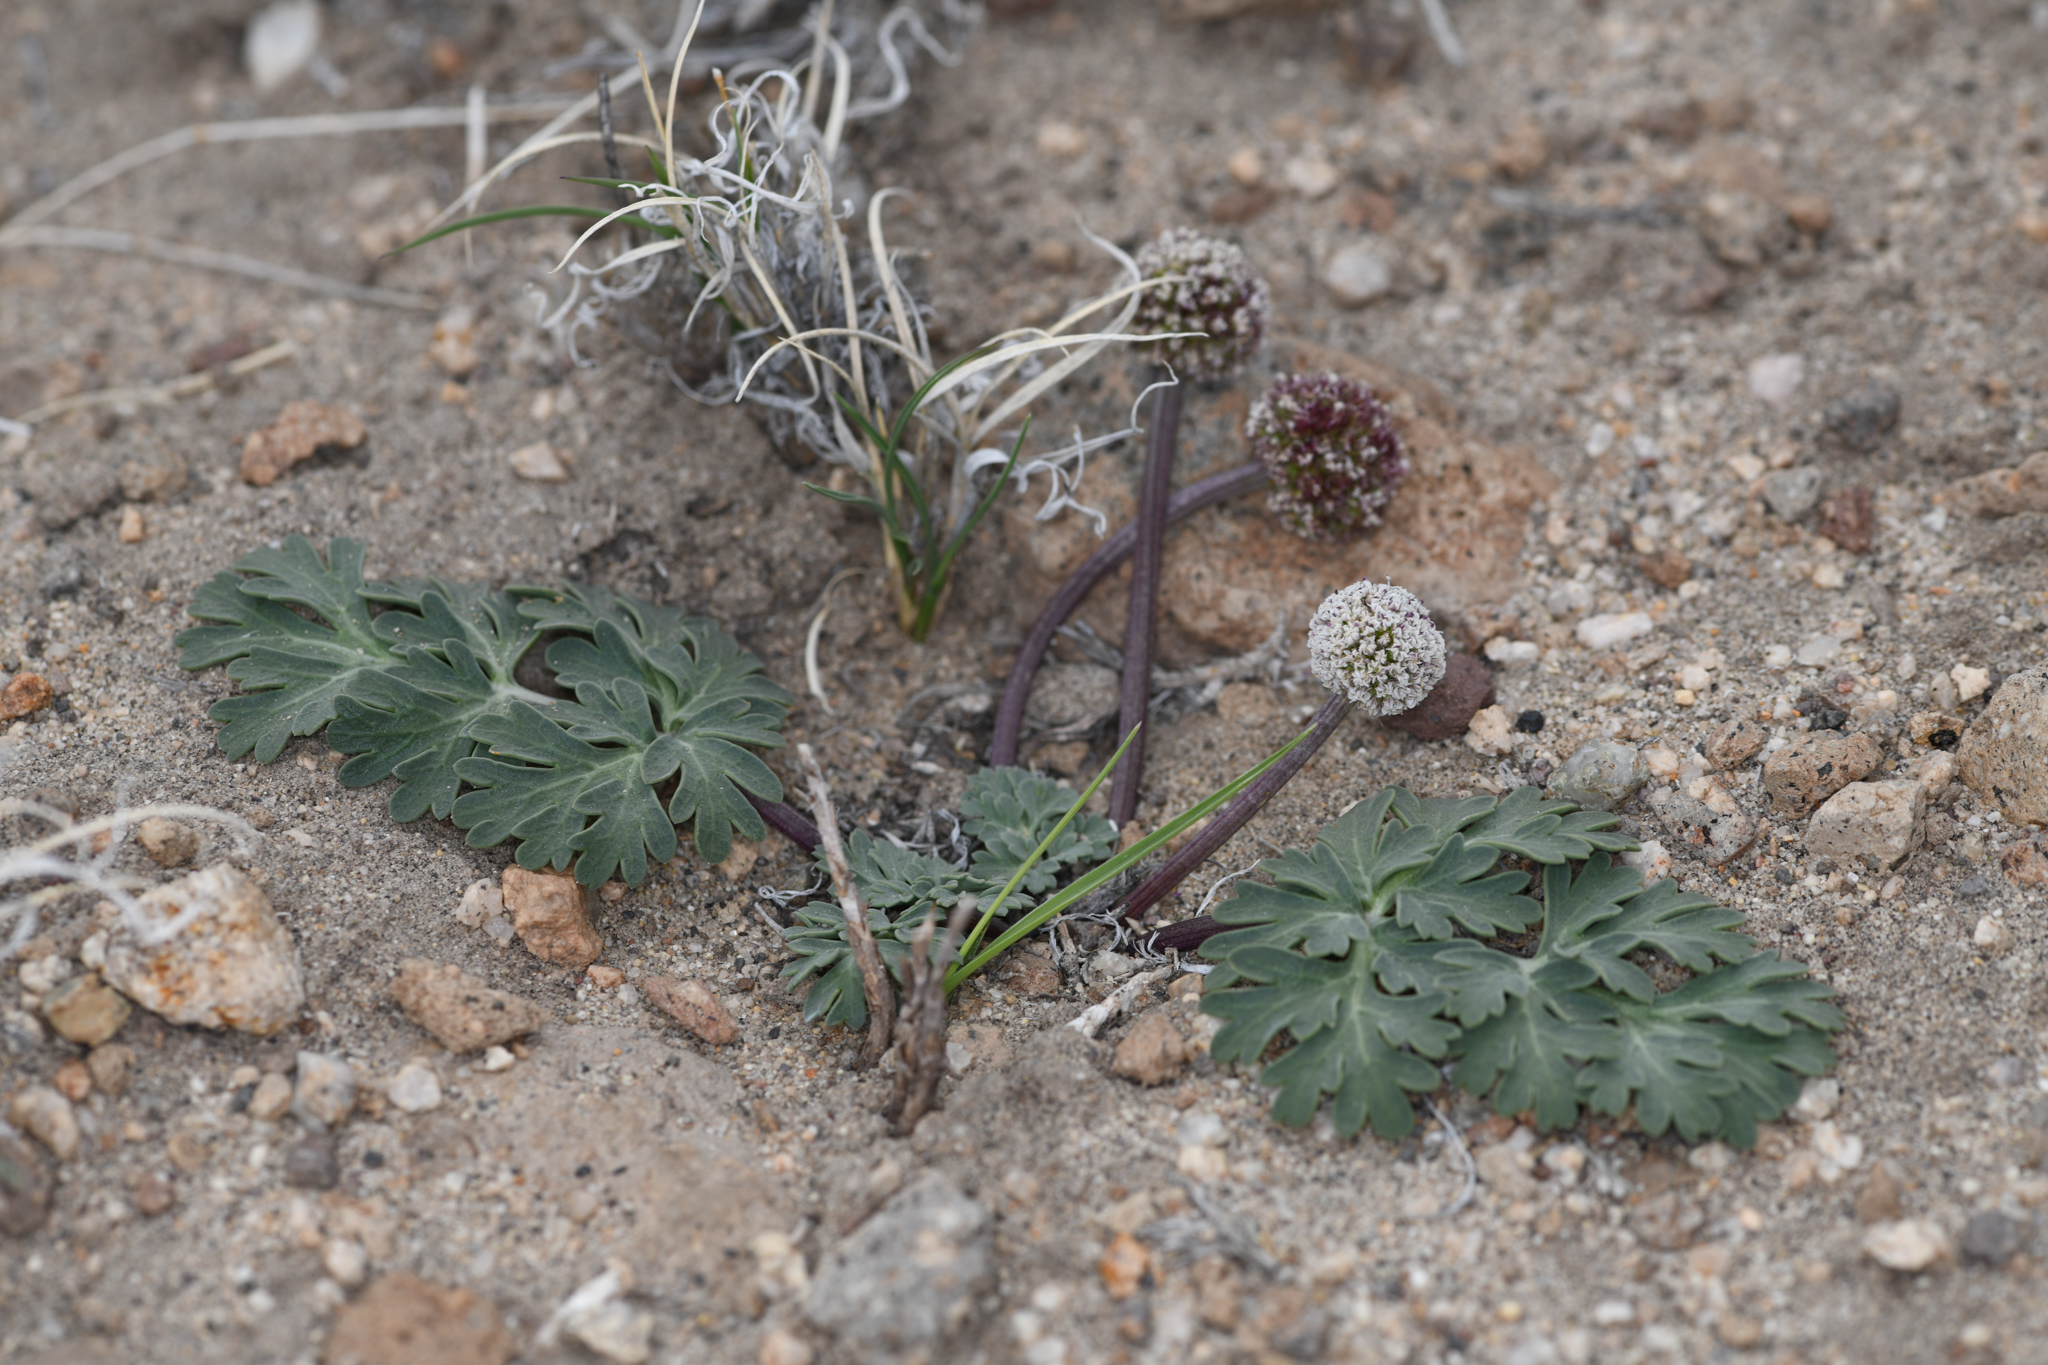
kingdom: Plantae
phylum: Tracheophyta
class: Magnoliopsida
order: Apiales
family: Apiaceae
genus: Cymopterus
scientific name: Cymopterus globosus
